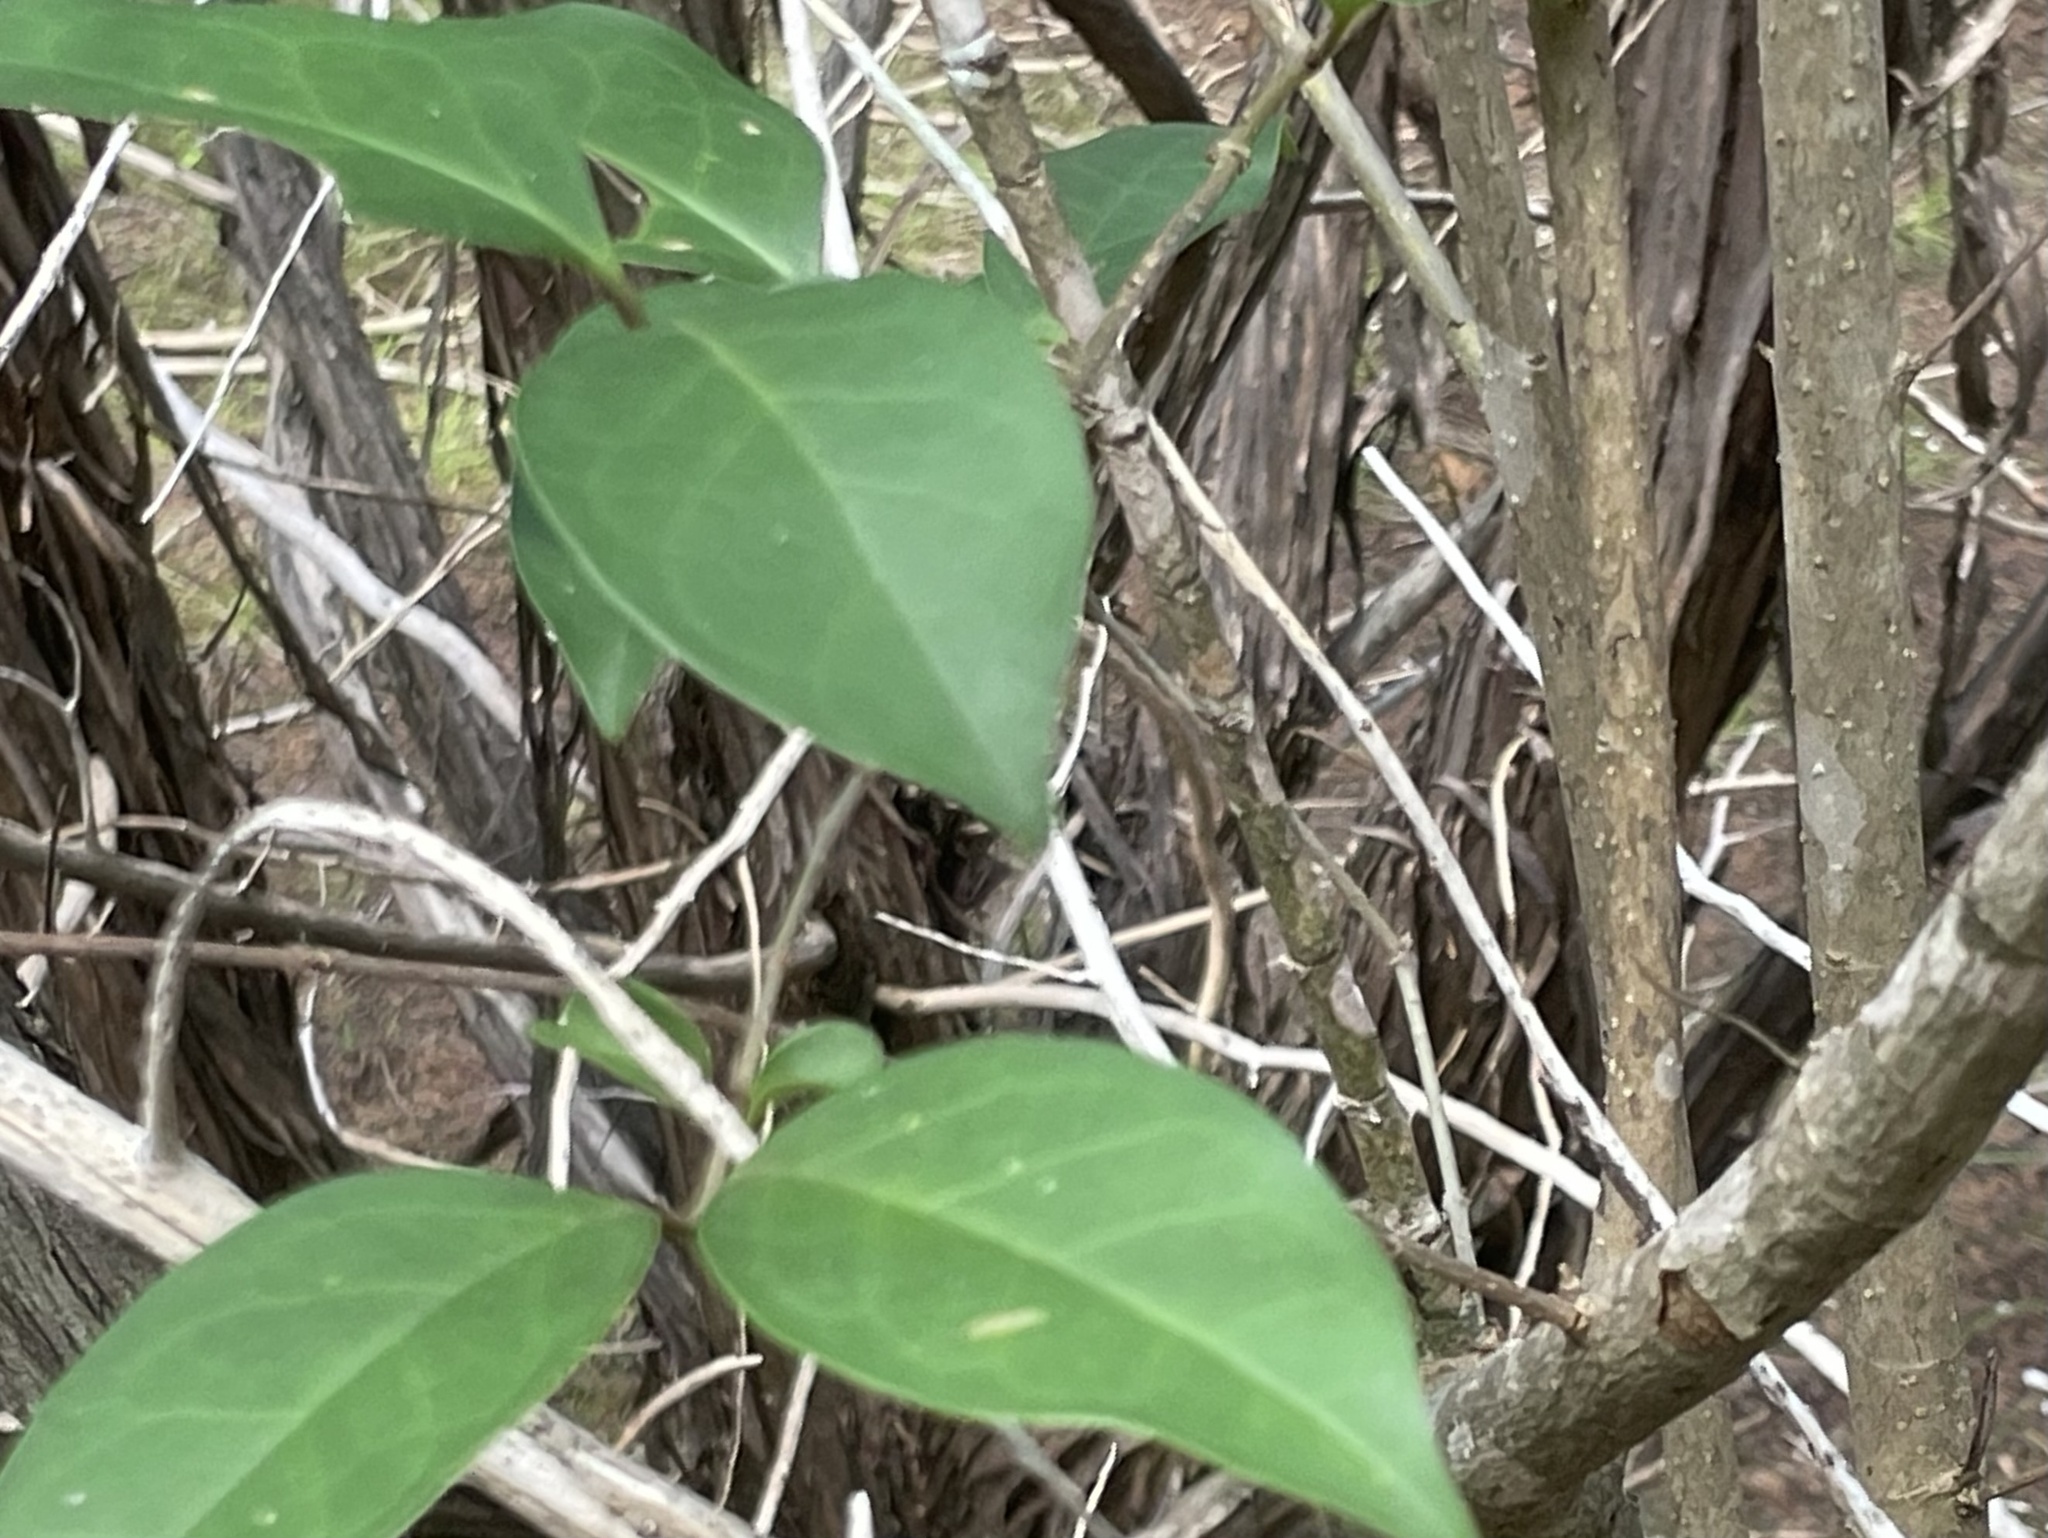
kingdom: Plantae
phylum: Tracheophyta
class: Magnoliopsida
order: Lamiales
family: Oleaceae
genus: Ligustrum
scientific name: Ligustrum lucidum
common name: Glossy privet
